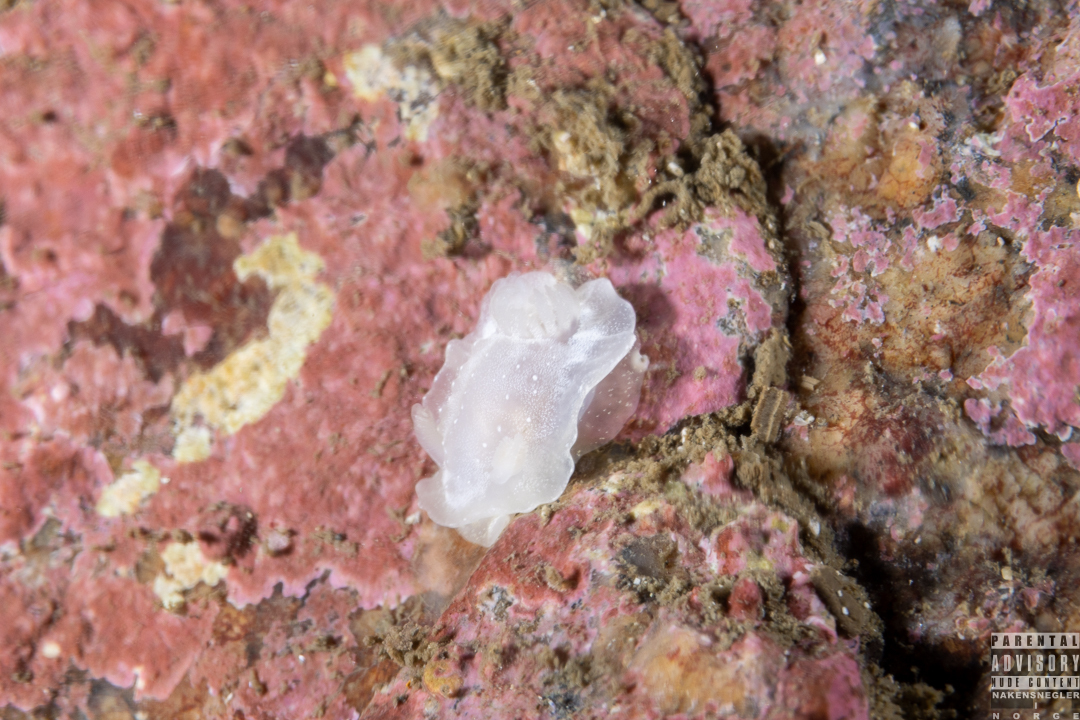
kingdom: Animalia
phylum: Mollusca
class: Gastropoda
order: Nudibranchia
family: Goniodorididae
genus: Okenia
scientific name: Okenia
